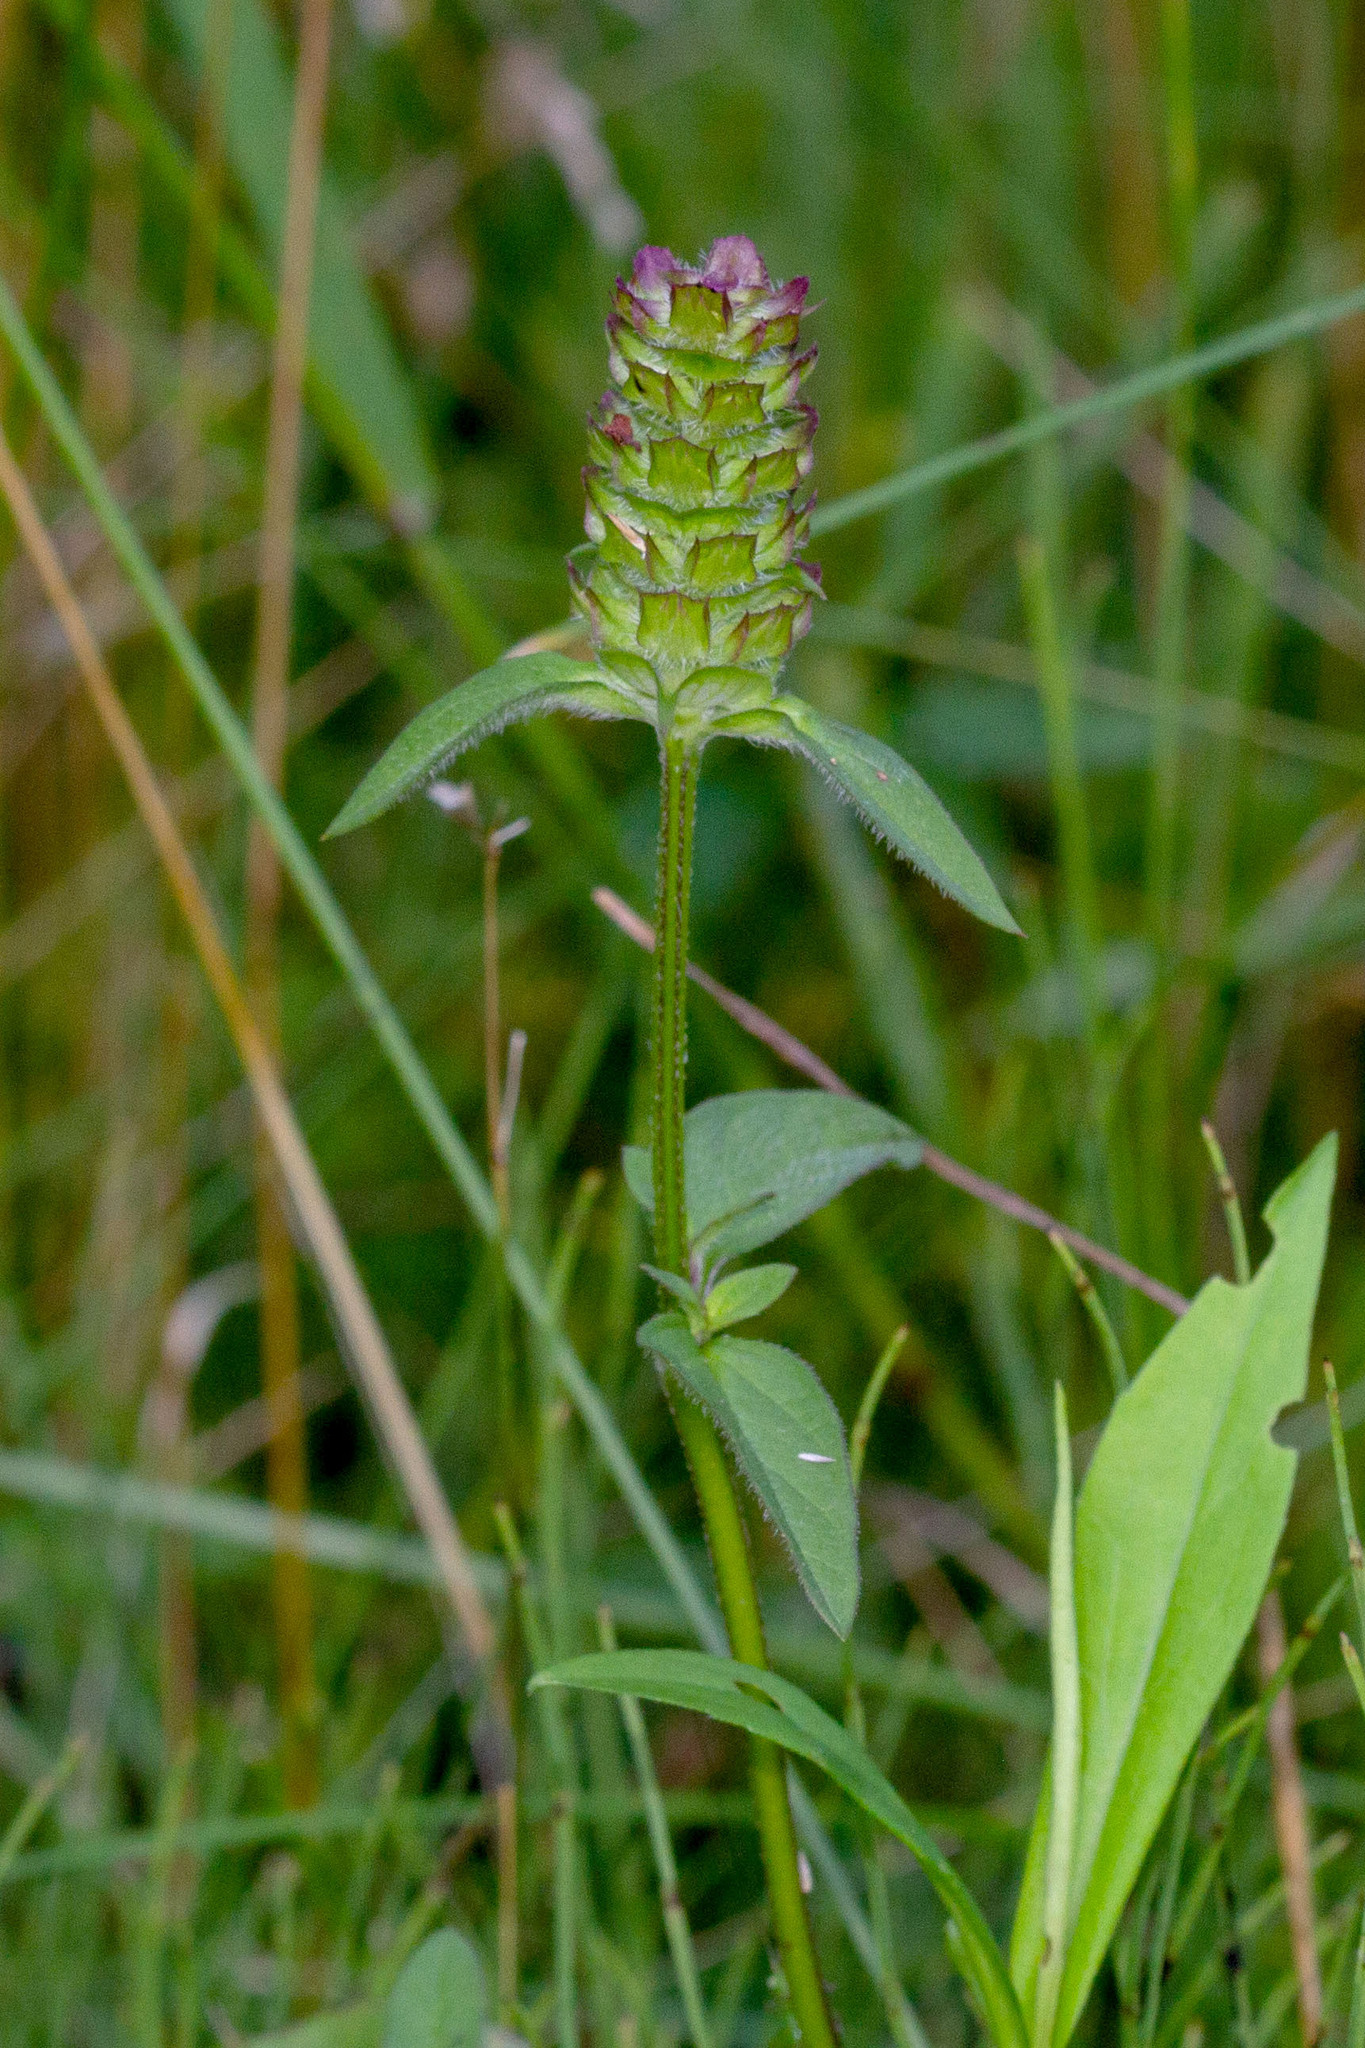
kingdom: Plantae
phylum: Tracheophyta
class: Magnoliopsida
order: Lamiales
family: Lamiaceae
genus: Prunella
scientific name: Prunella vulgaris
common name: Heal-all
